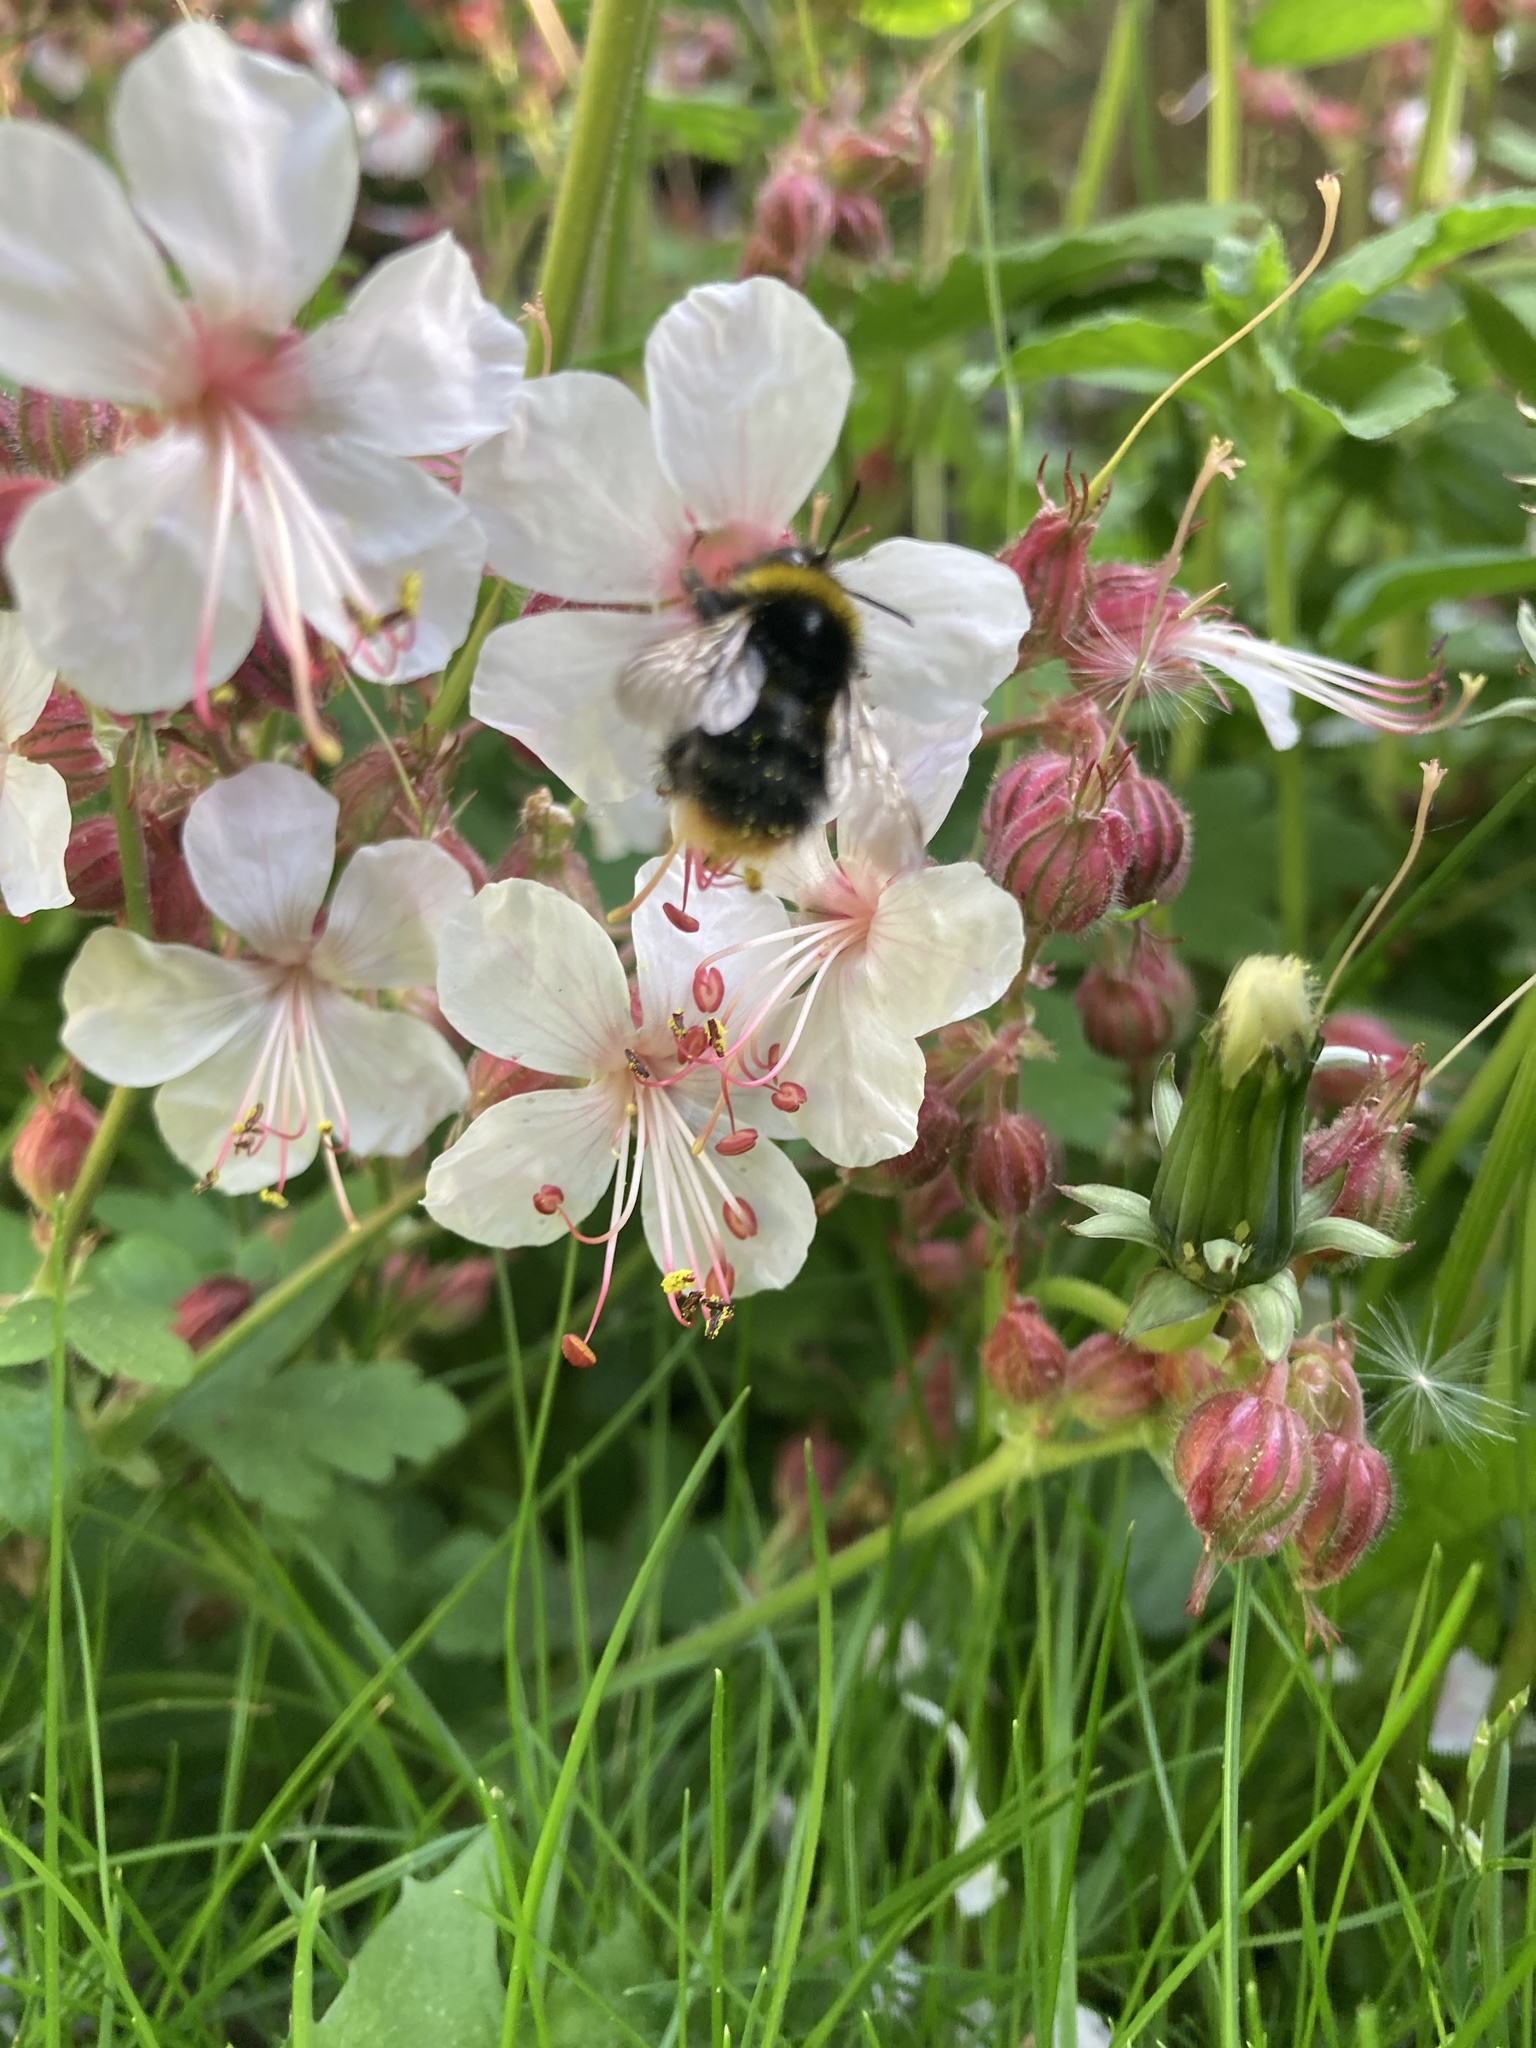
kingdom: Animalia
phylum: Arthropoda
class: Insecta
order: Hymenoptera
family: Apidae
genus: Bombus
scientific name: Bombus pratorum
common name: Early humble-bee
